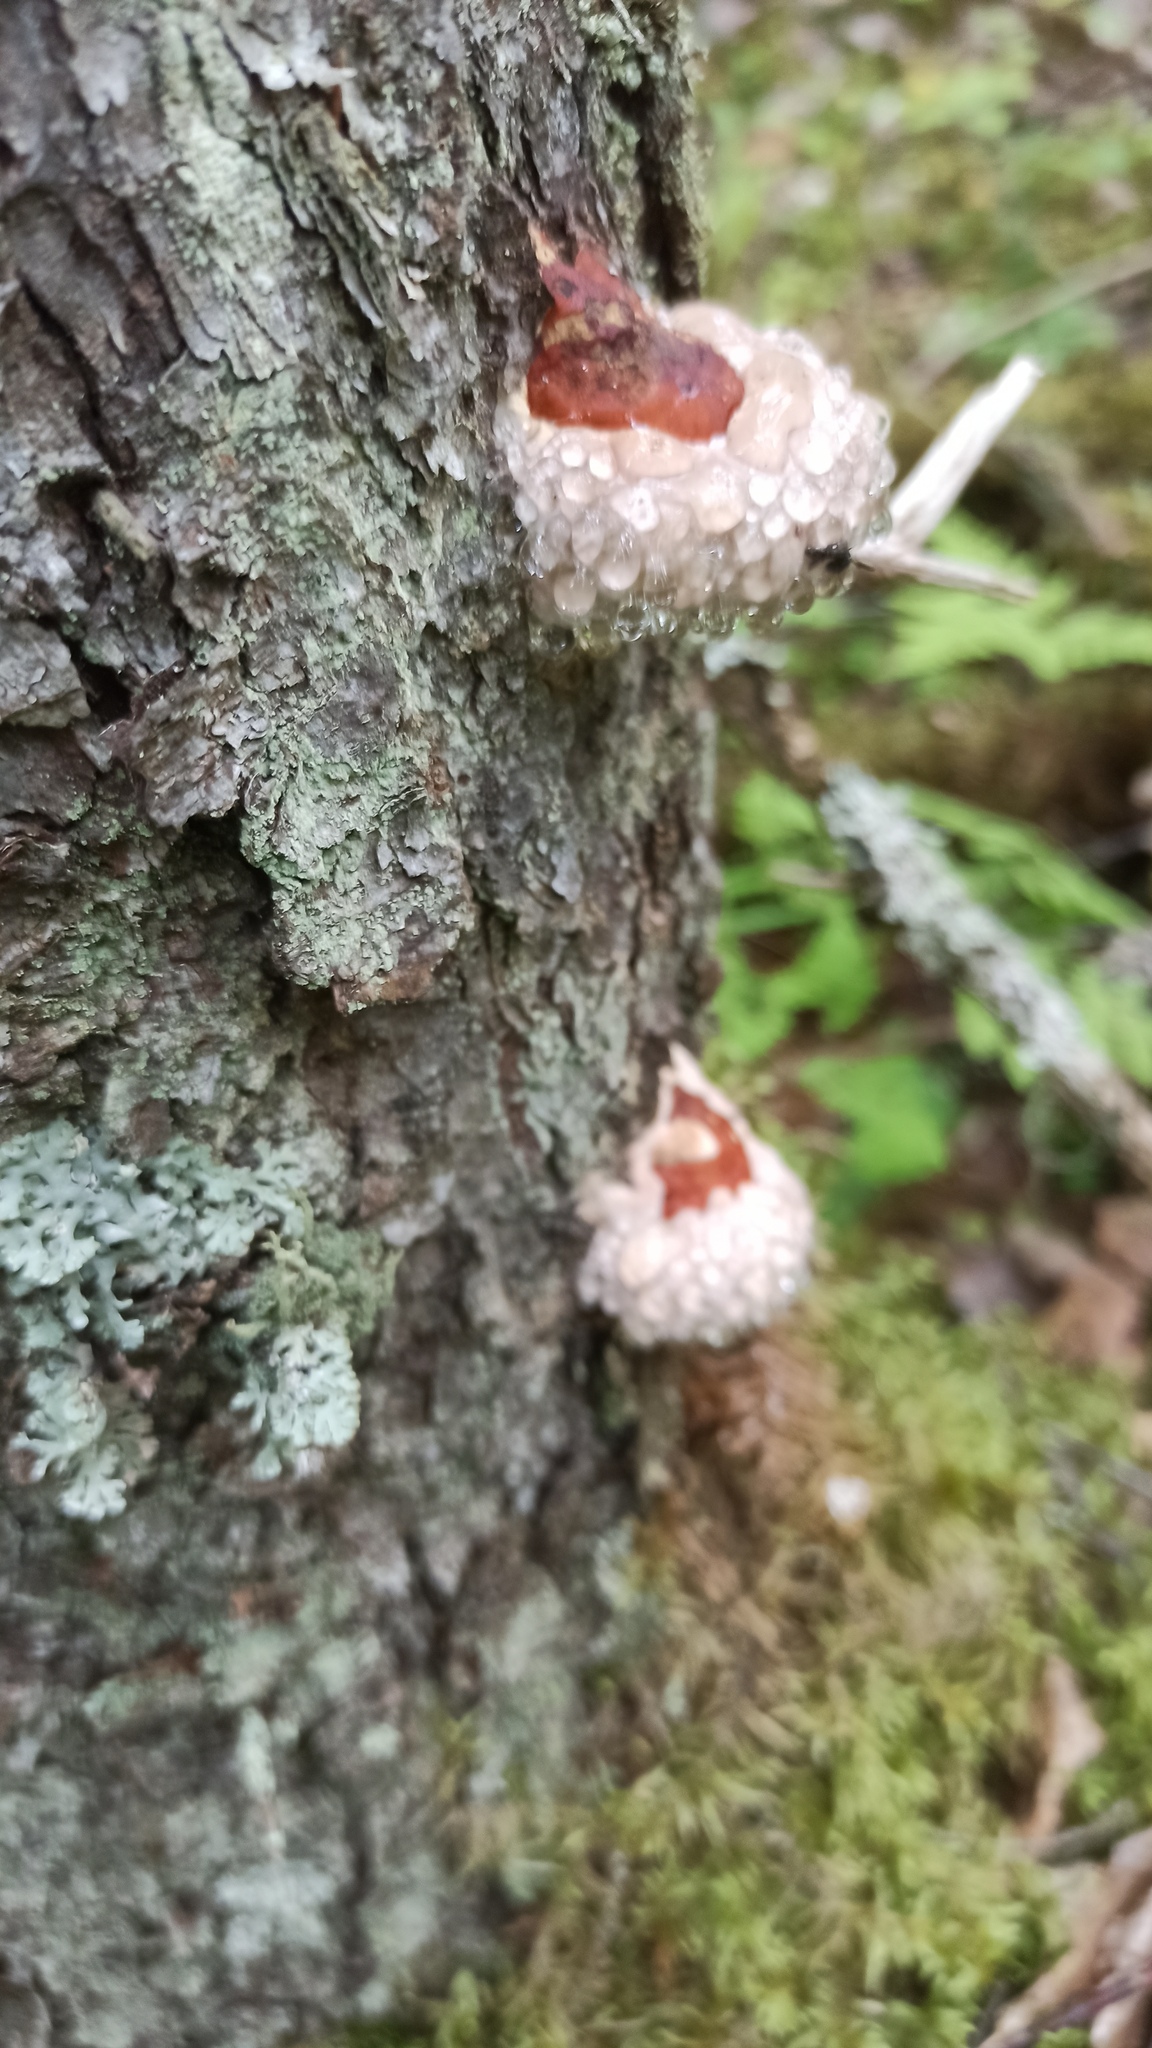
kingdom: Fungi
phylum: Basidiomycota
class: Agaricomycetes
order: Polyporales
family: Fomitopsidaceae
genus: Fomitopsis
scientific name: Fomitopsis pinicola
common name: Red-belted bracket
